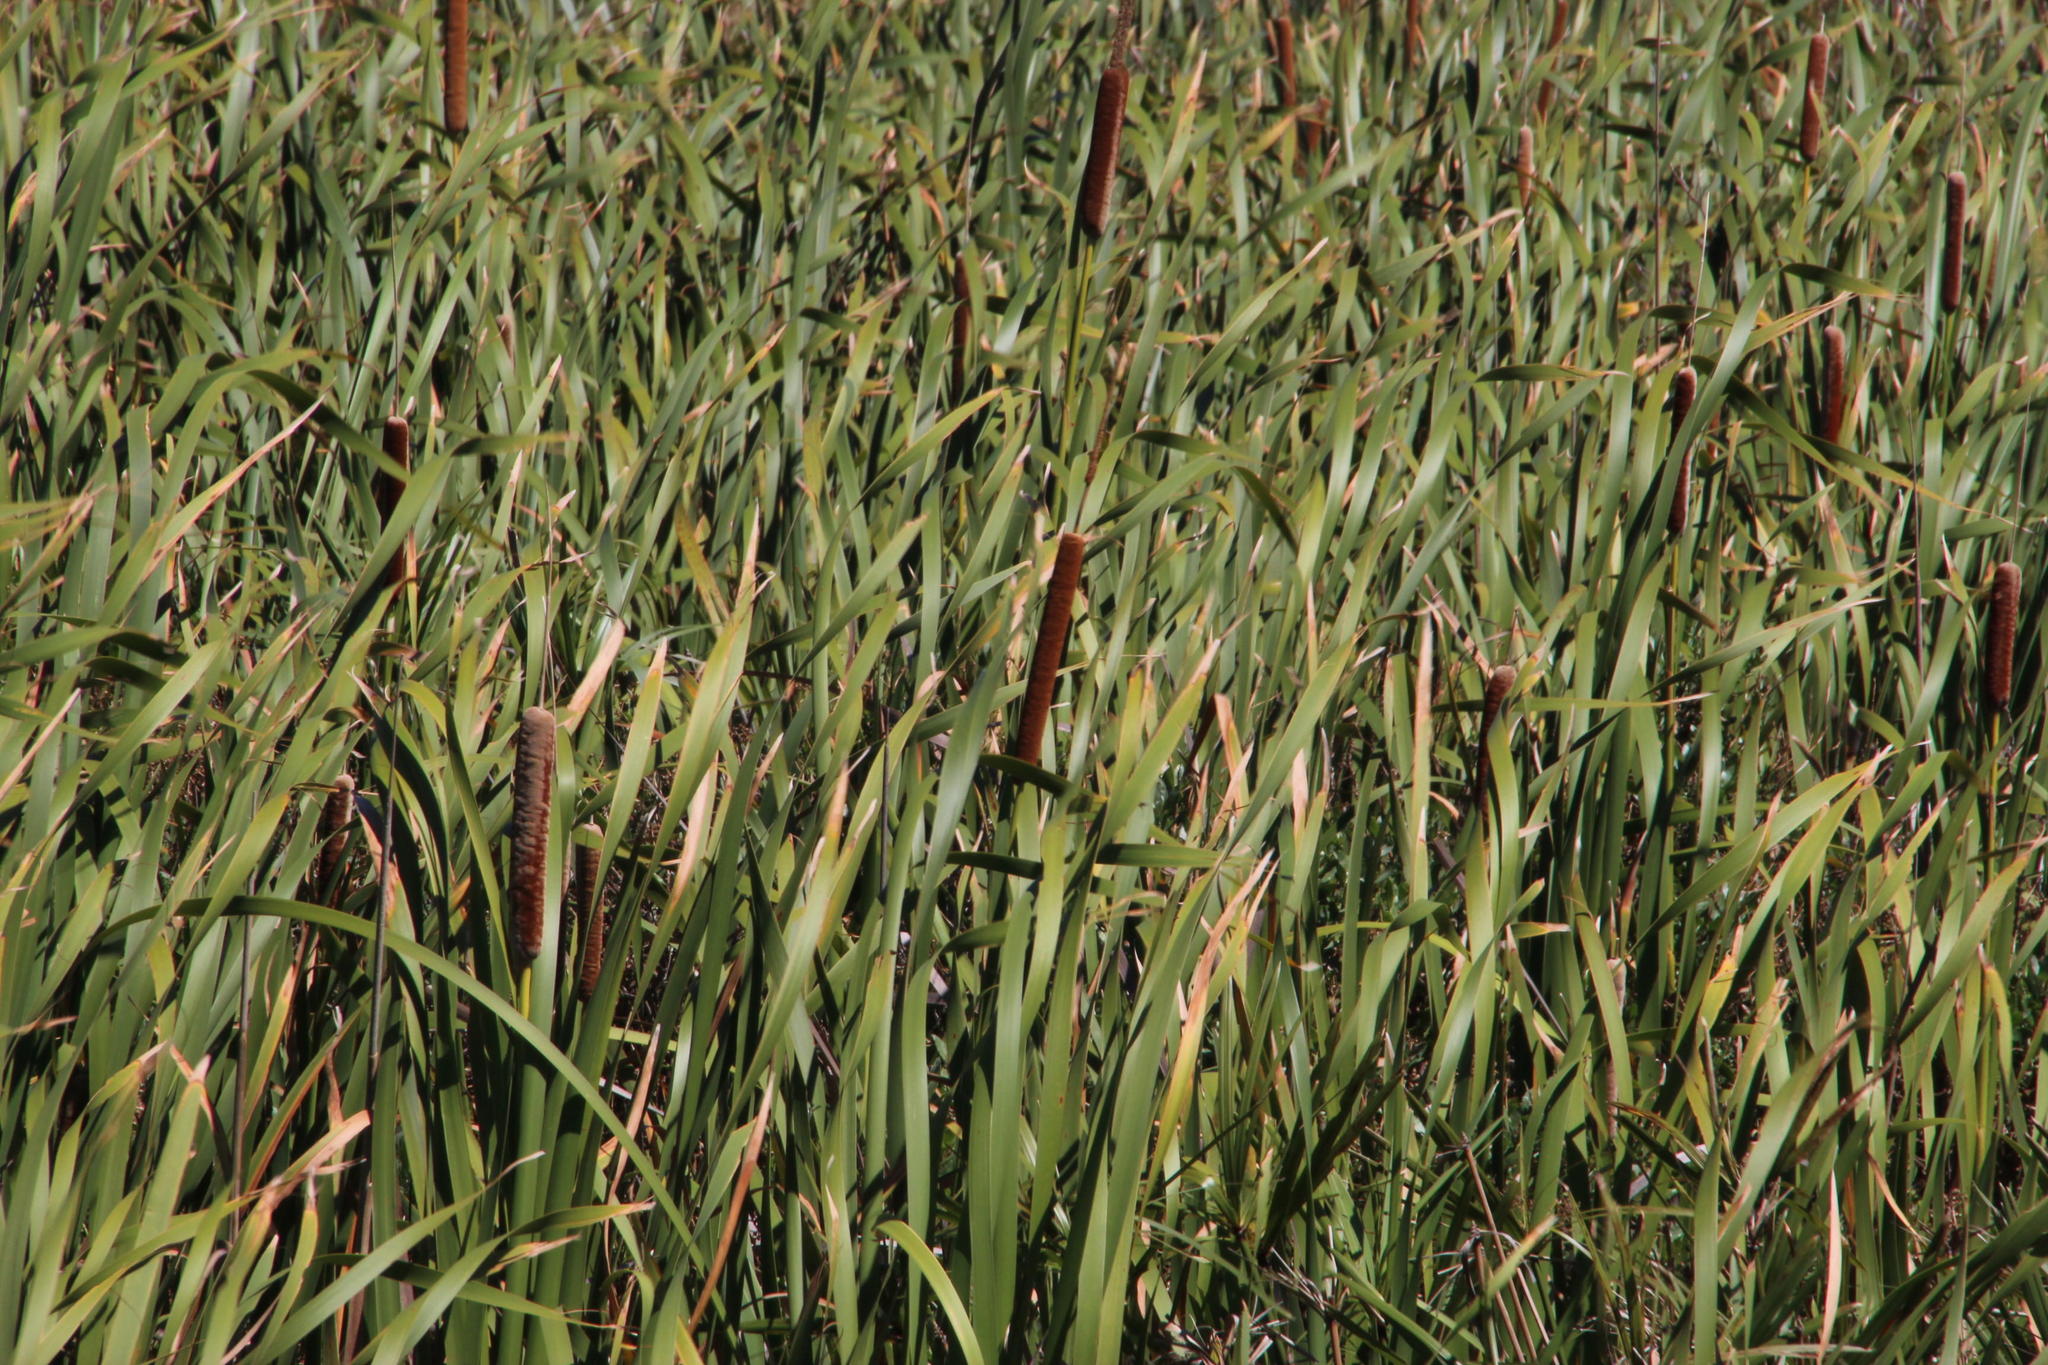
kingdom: Plantae
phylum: Tracheophyta
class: Liliopsida
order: Poales
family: Typhaceae
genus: Typha
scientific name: Typha capensis
